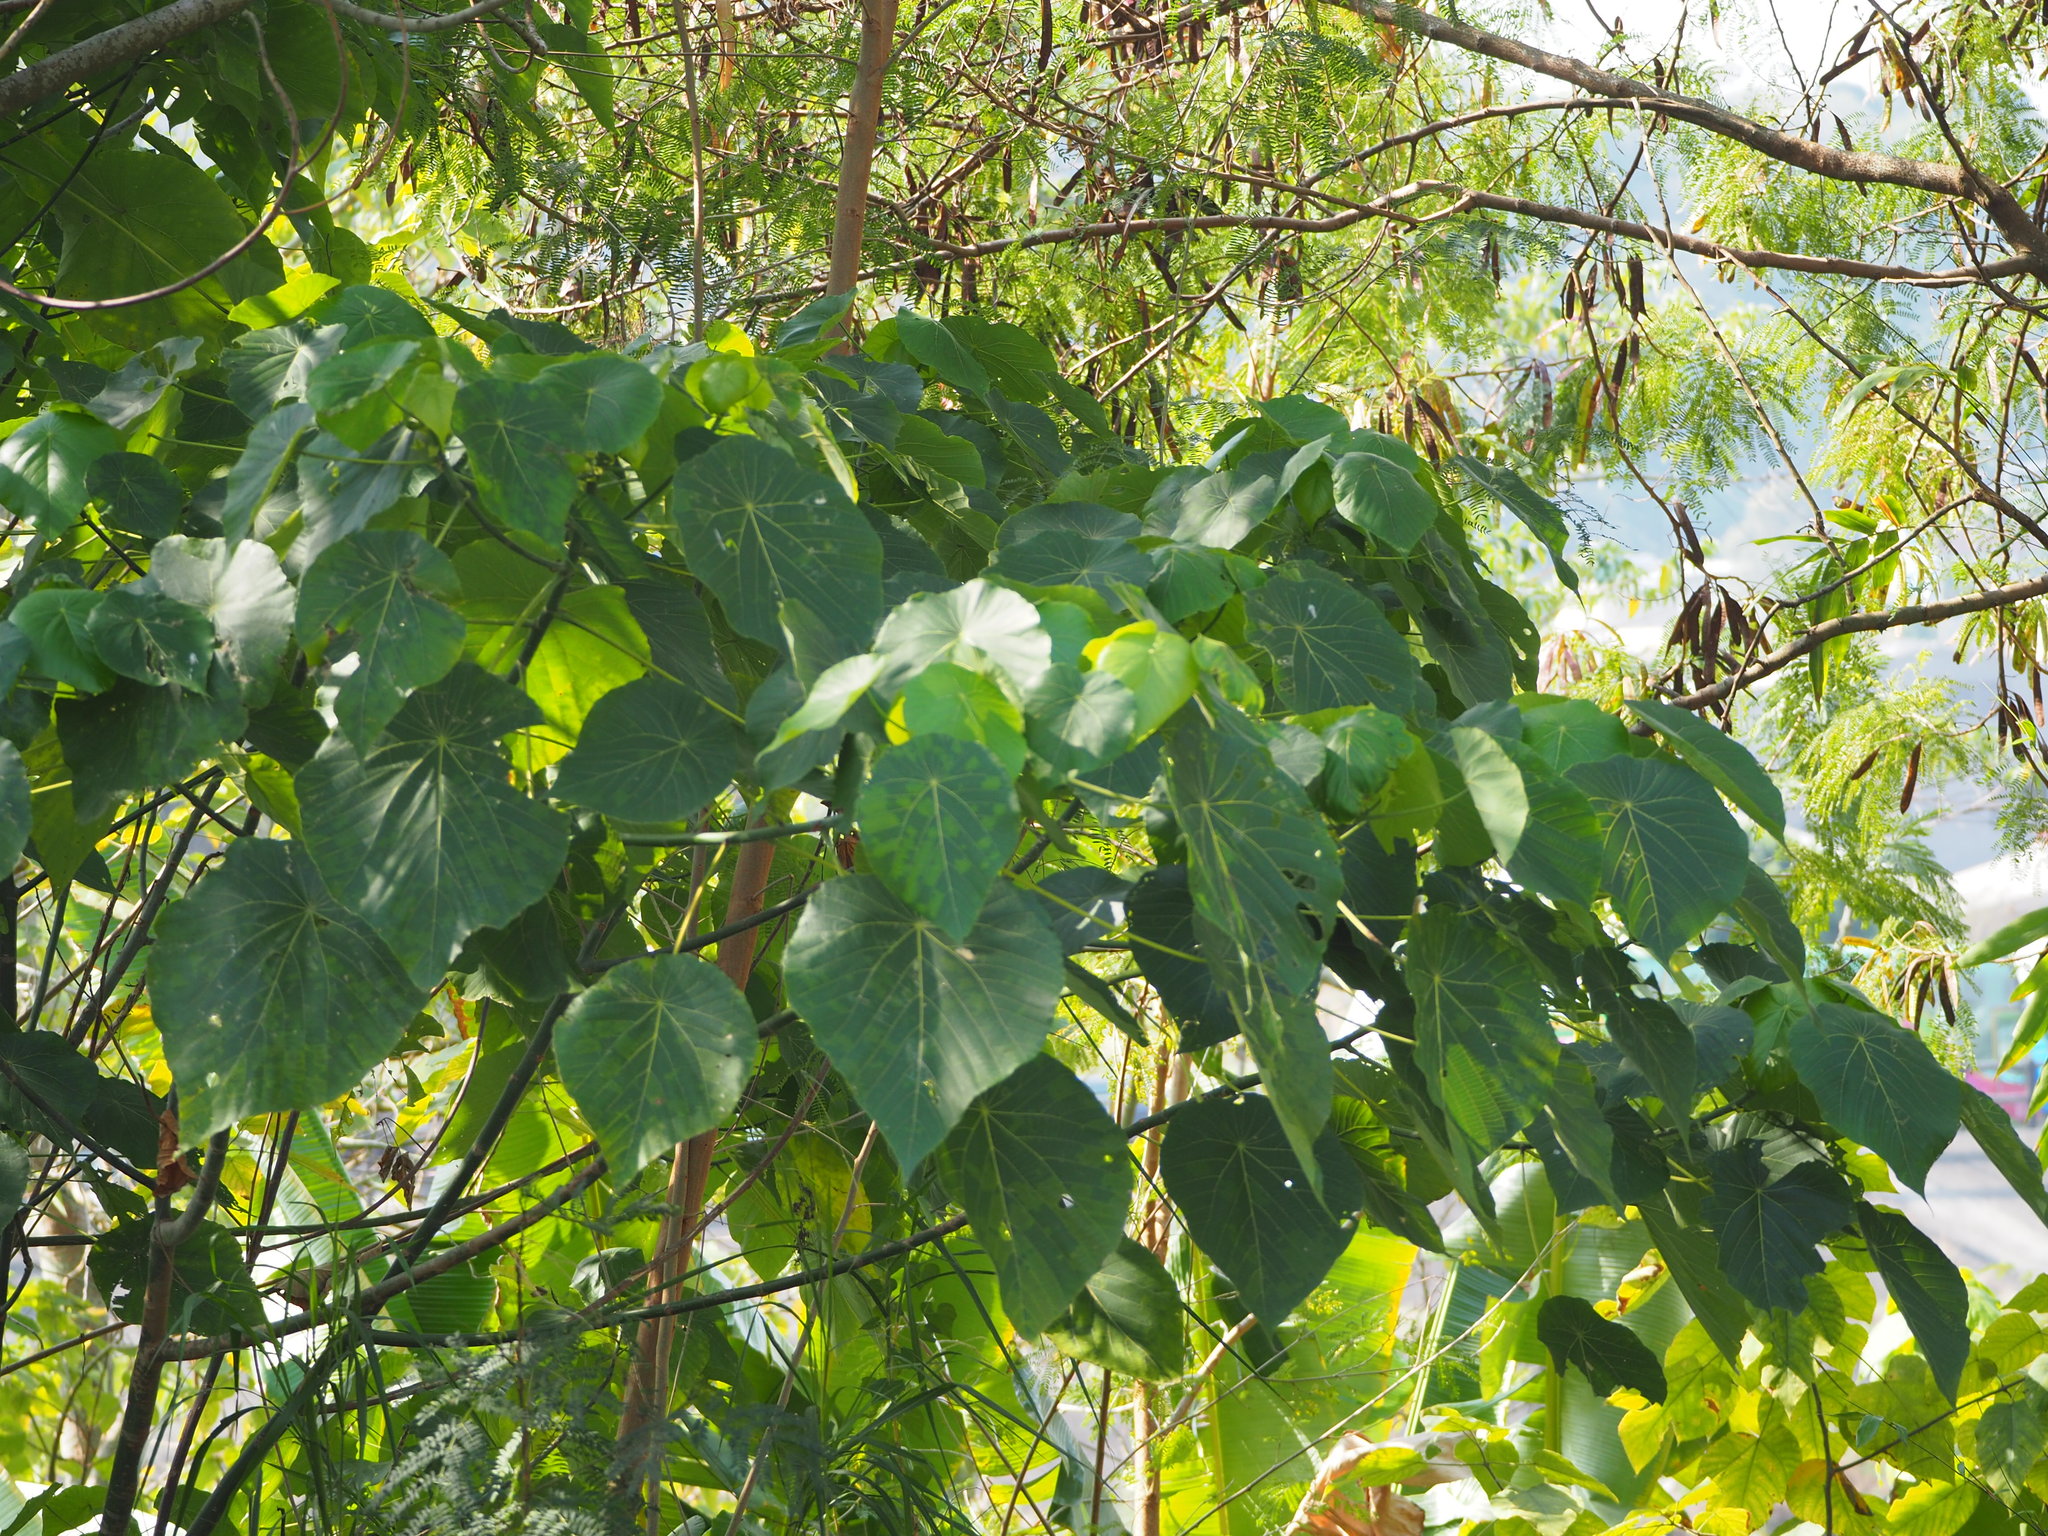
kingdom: Plantae
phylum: Tracheophyta
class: Magnoliopsida
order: Malpighiales
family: Euphorbiaceae
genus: Macaranga
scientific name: Macaranga tanarius
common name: Parasol leaf tree
